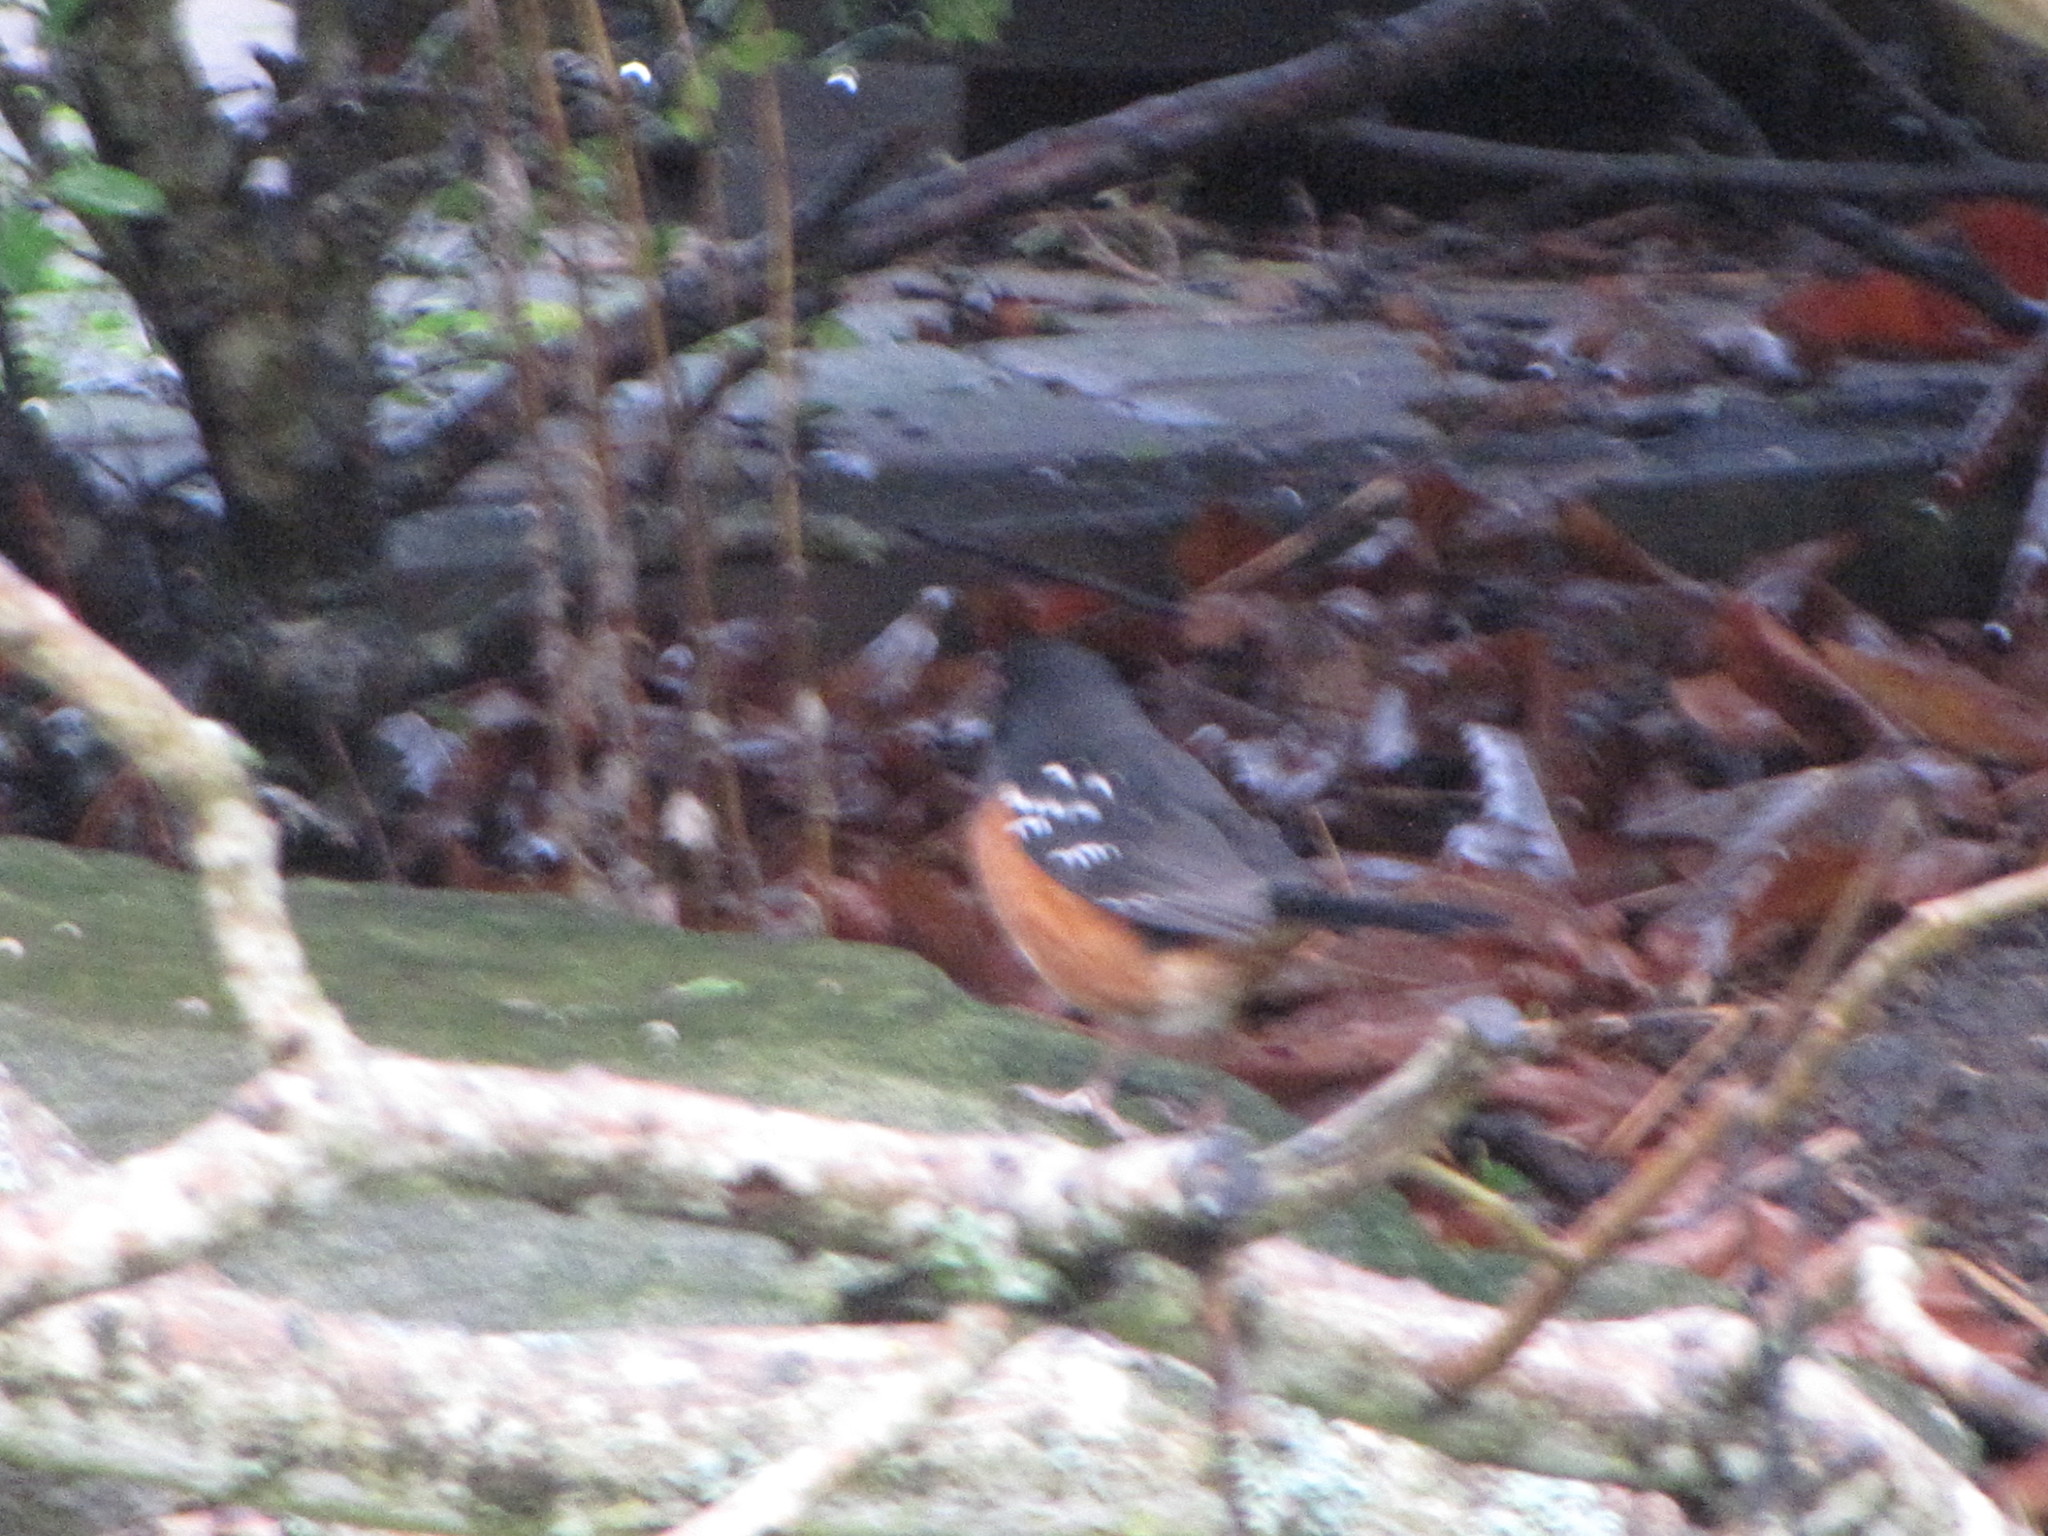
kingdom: Animalia
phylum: Chordata
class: Aves
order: Passeriformes
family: Passerellidae
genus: Pipilo
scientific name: Pipilo maculatus
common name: Spotted towhee
